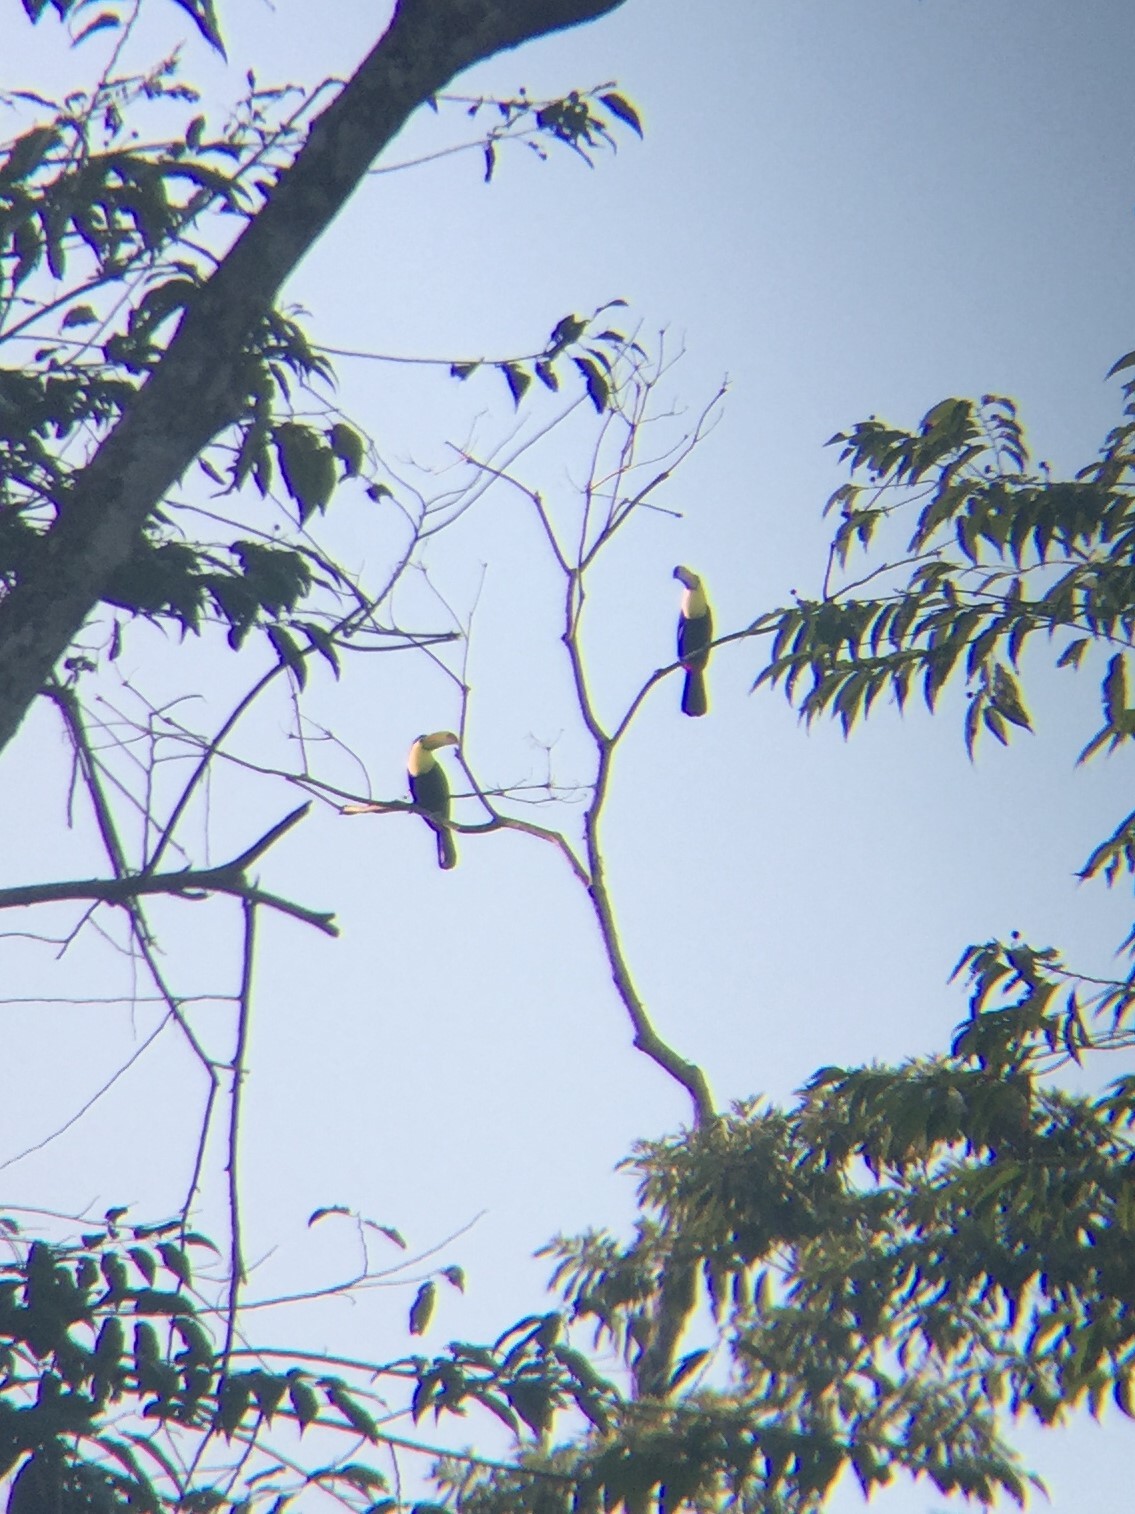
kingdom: Animalia
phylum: Chordata
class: Aves
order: Piciformes
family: Ramphastidae
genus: Ramphastos
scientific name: Ramphastos sulfuratus
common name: Keel-billed toucan
